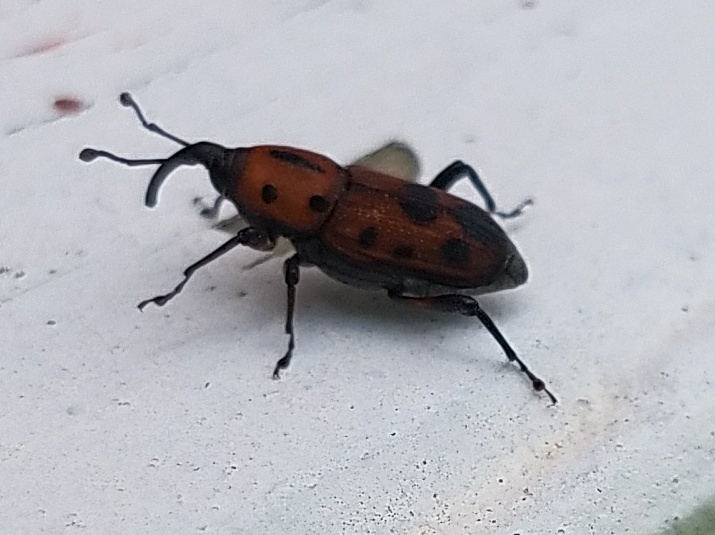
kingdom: Animalia
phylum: Arthropoda
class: Insecta
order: Coleoptera
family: Dryophthoridae
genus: Rhodobaenus
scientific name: Rhodobaenus quinquepunctatus
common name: Cocklebur weevil
